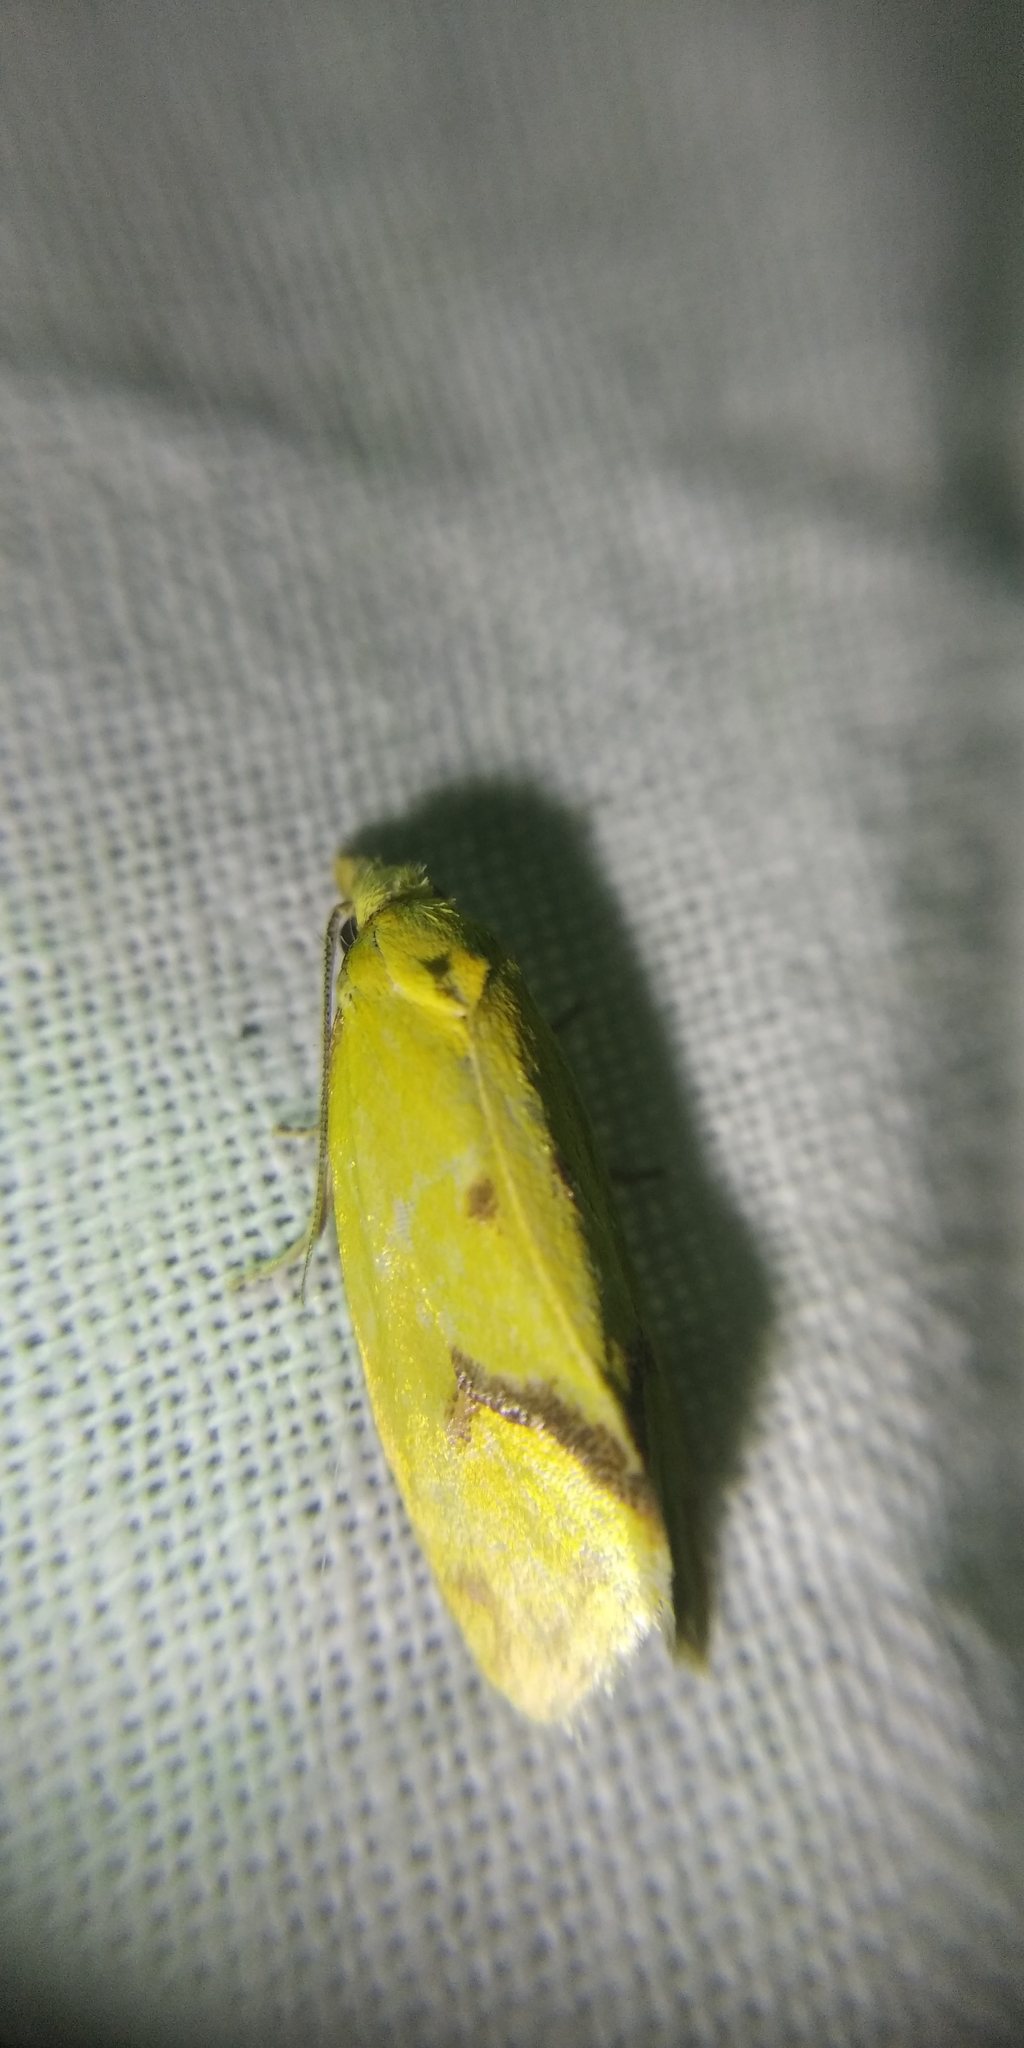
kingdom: Animalia
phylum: Arthropoda
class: Insecta
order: Lepidoptera
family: Tortricidae
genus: Agapeta
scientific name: Agapeta hamana
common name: Common yellow conch
